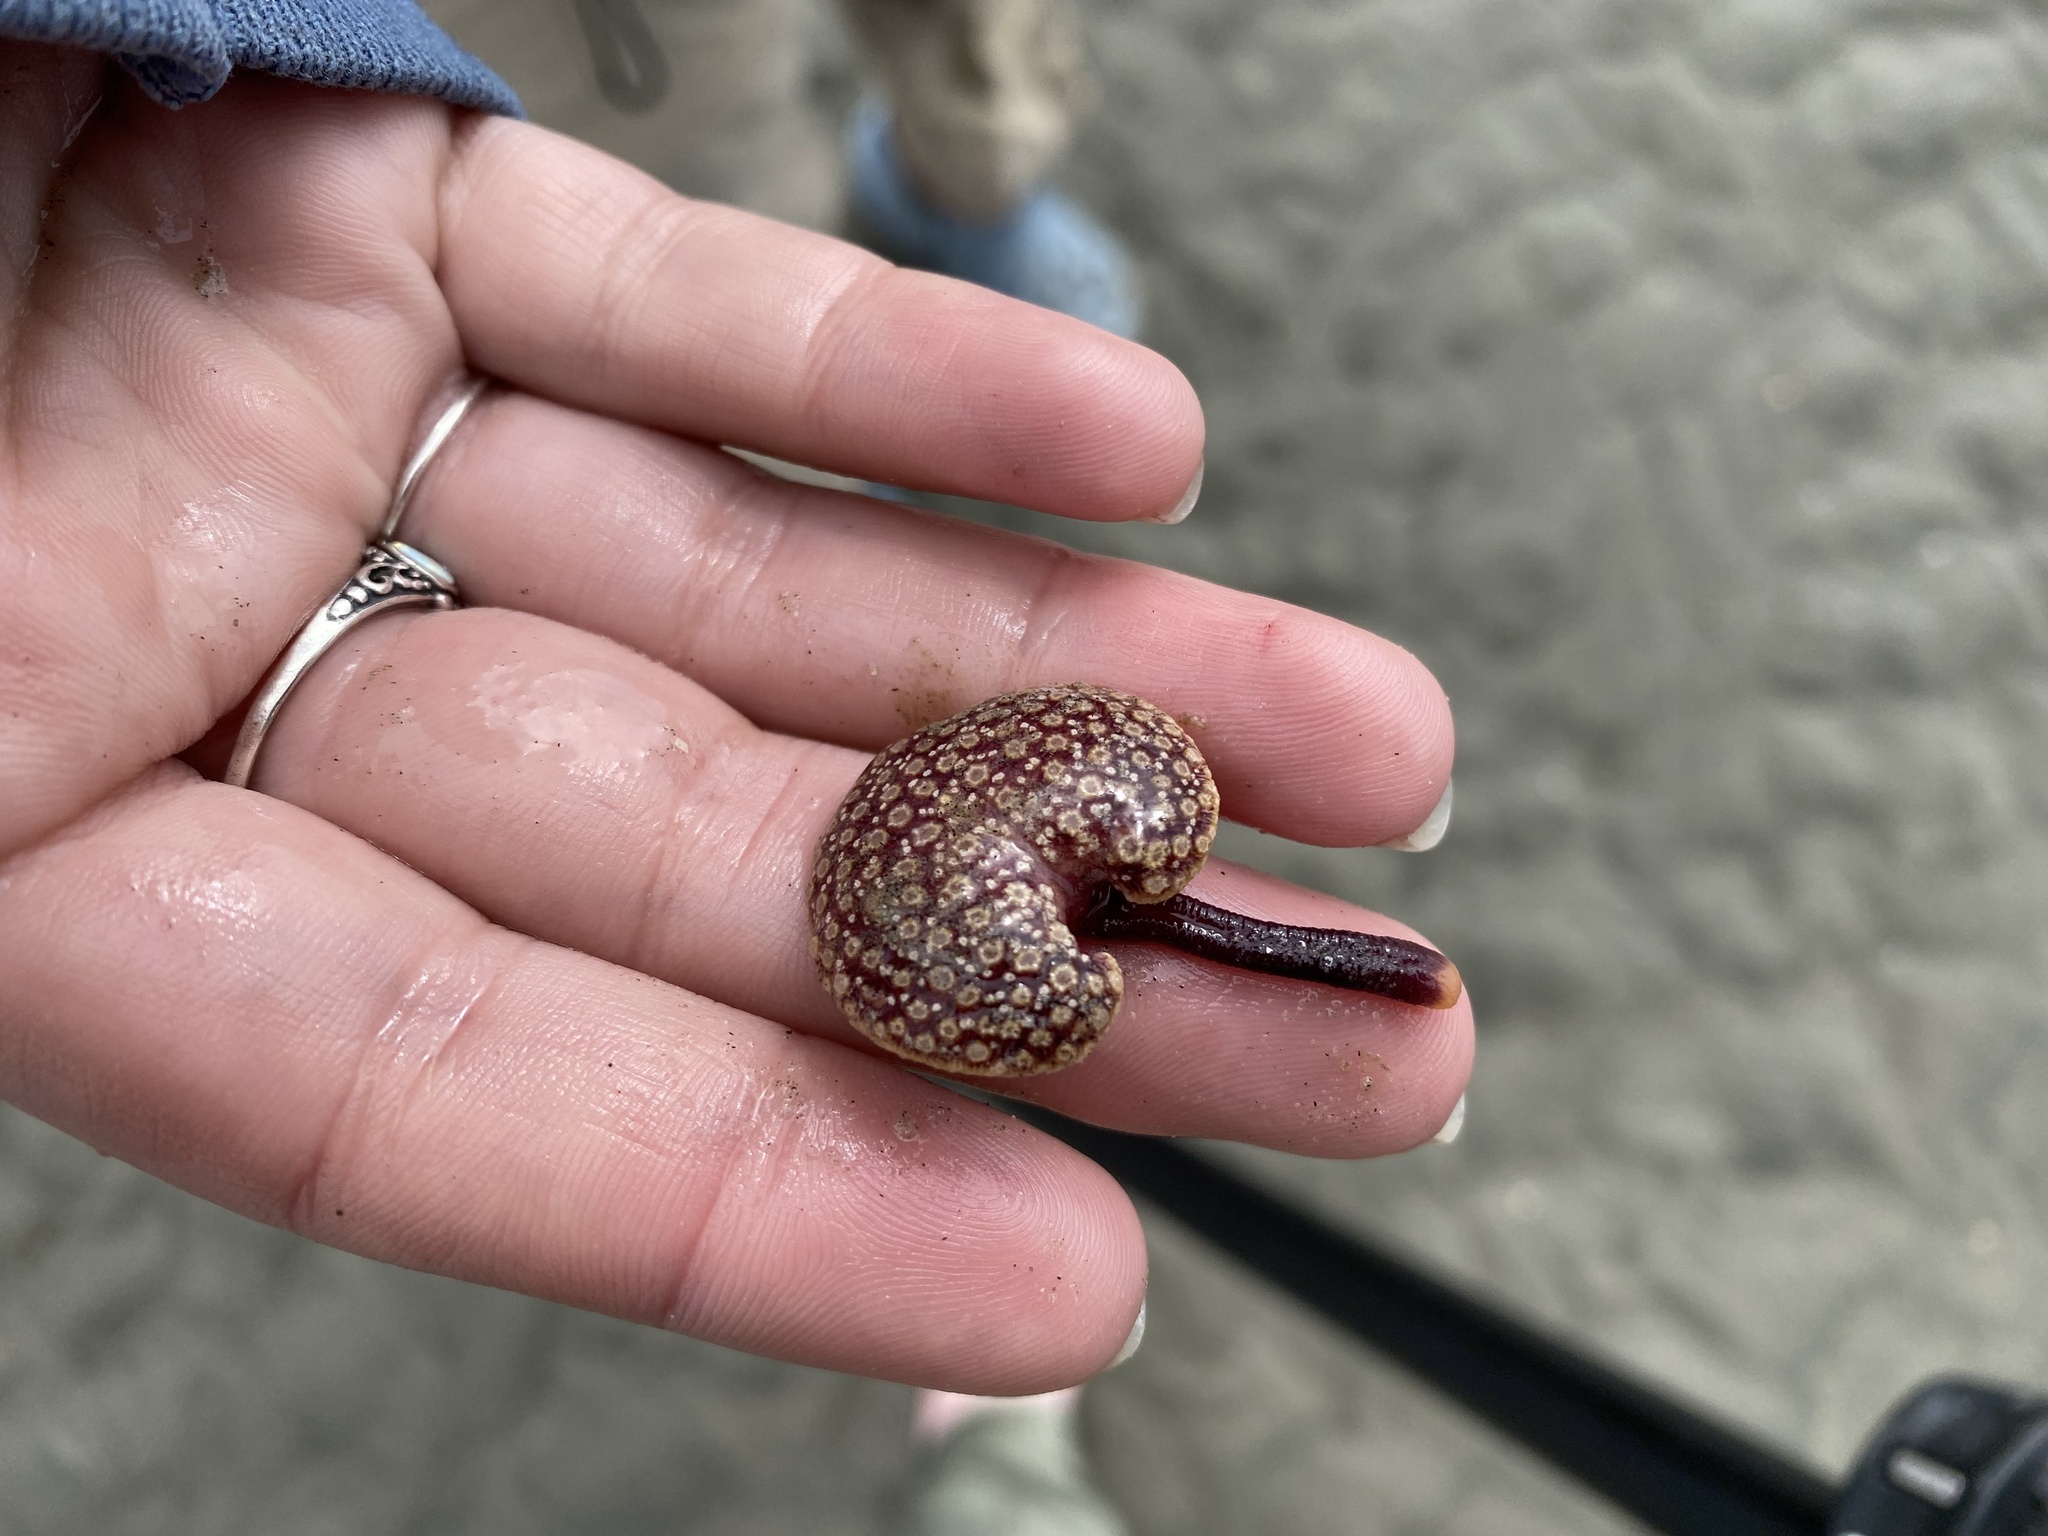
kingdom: Animalia
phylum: Cnidaria
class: Anthozoa
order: Scleralcyonacea
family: Renillidae
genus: Renilla
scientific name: Renilla reniformis
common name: Sea pansy
